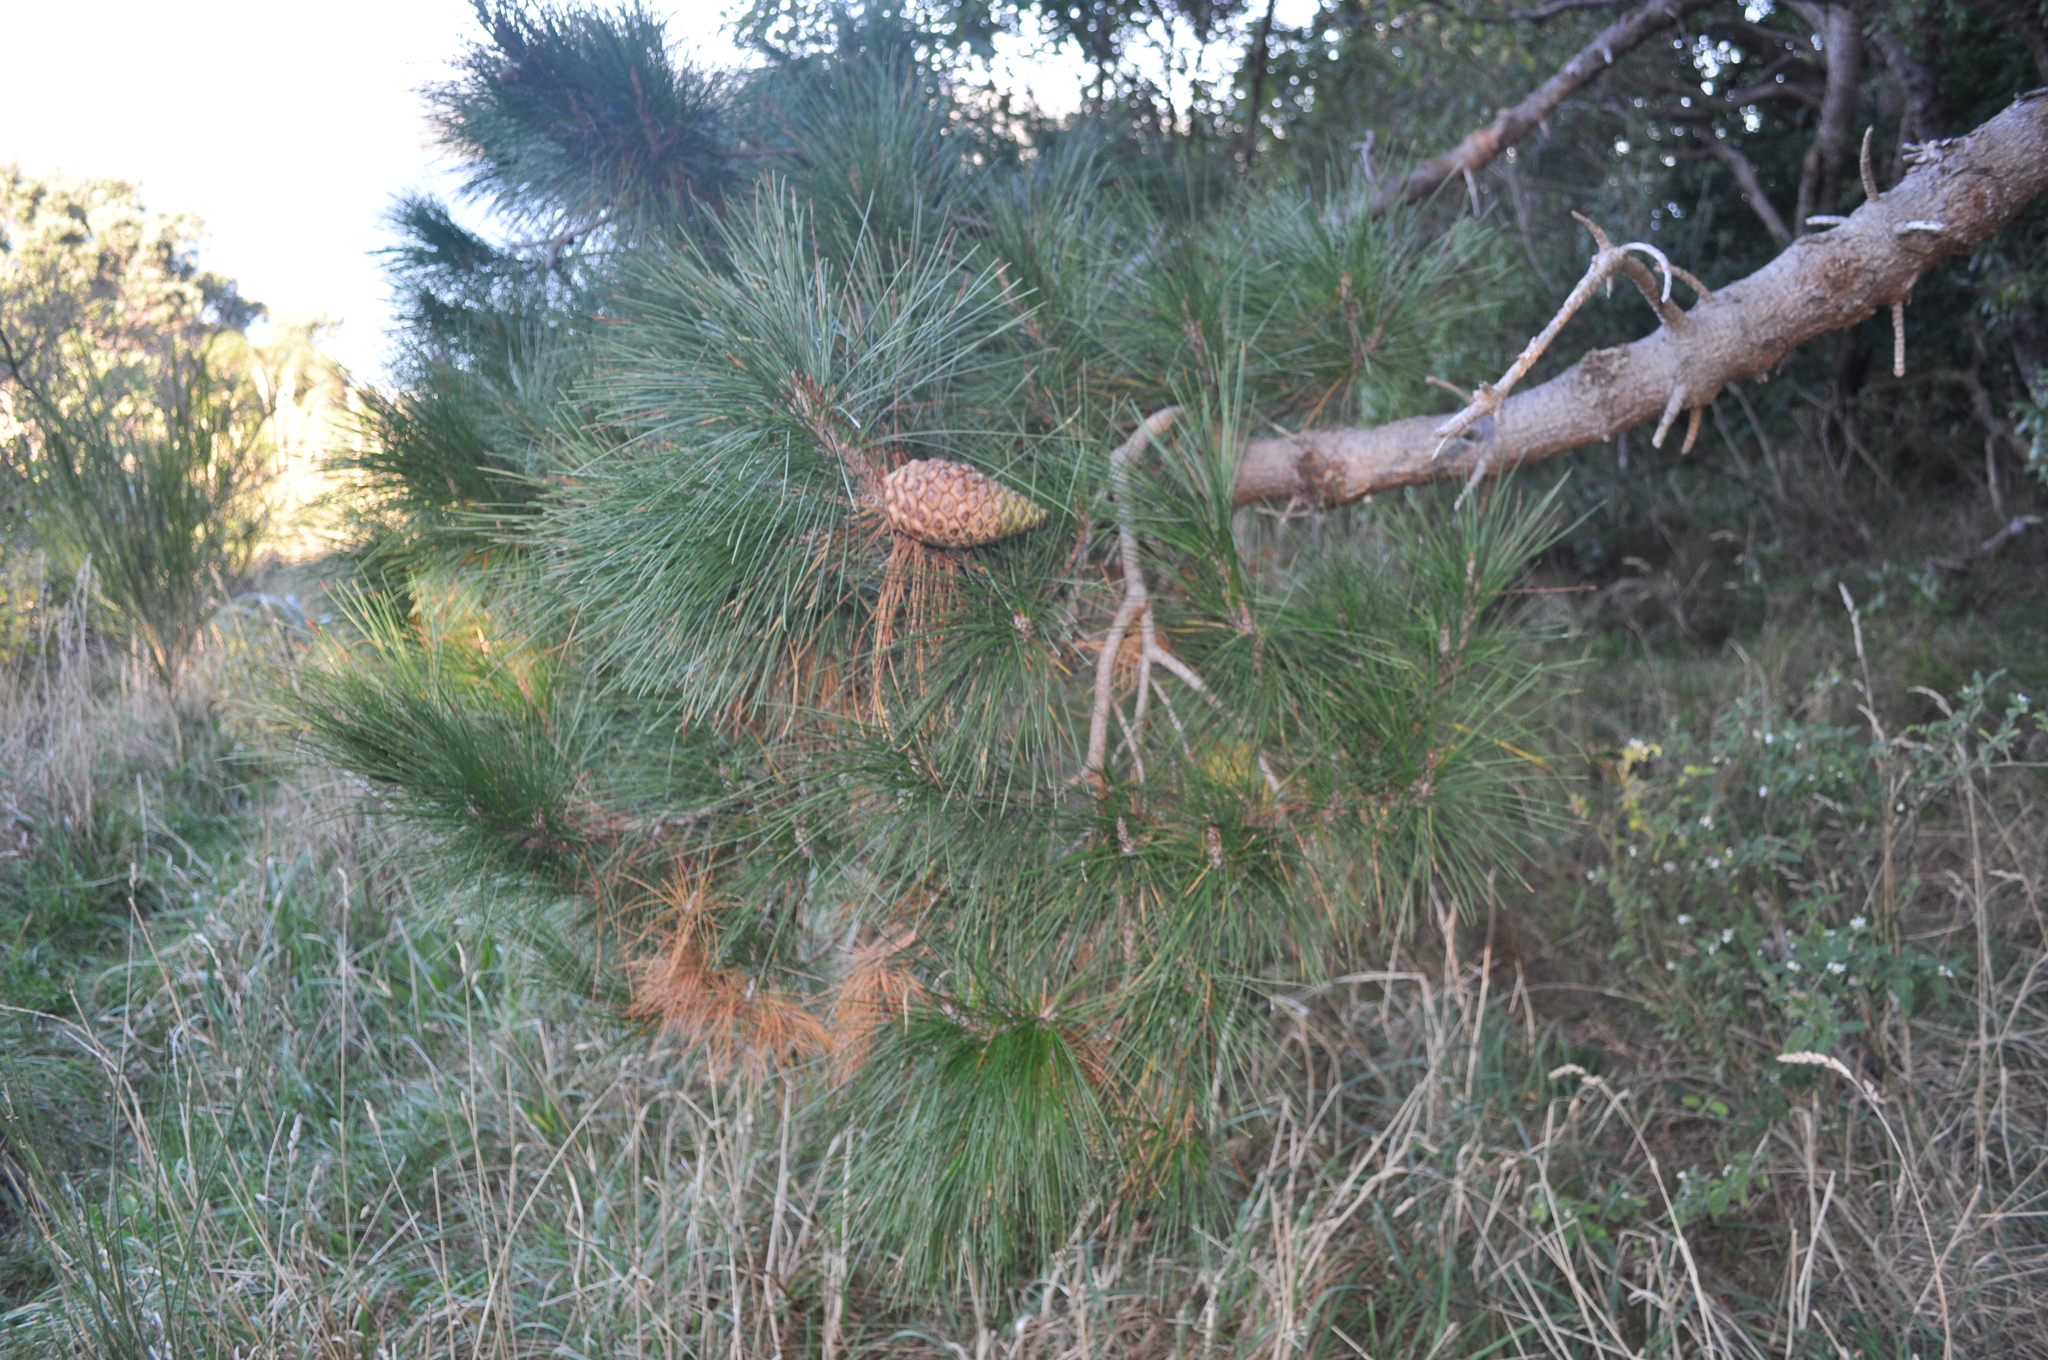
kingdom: Plantae
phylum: Tracheophyta
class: Pinopsida
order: Pinales
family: Pinaceae
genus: Pinus
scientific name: Pinus radiata
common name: Monterey pine
